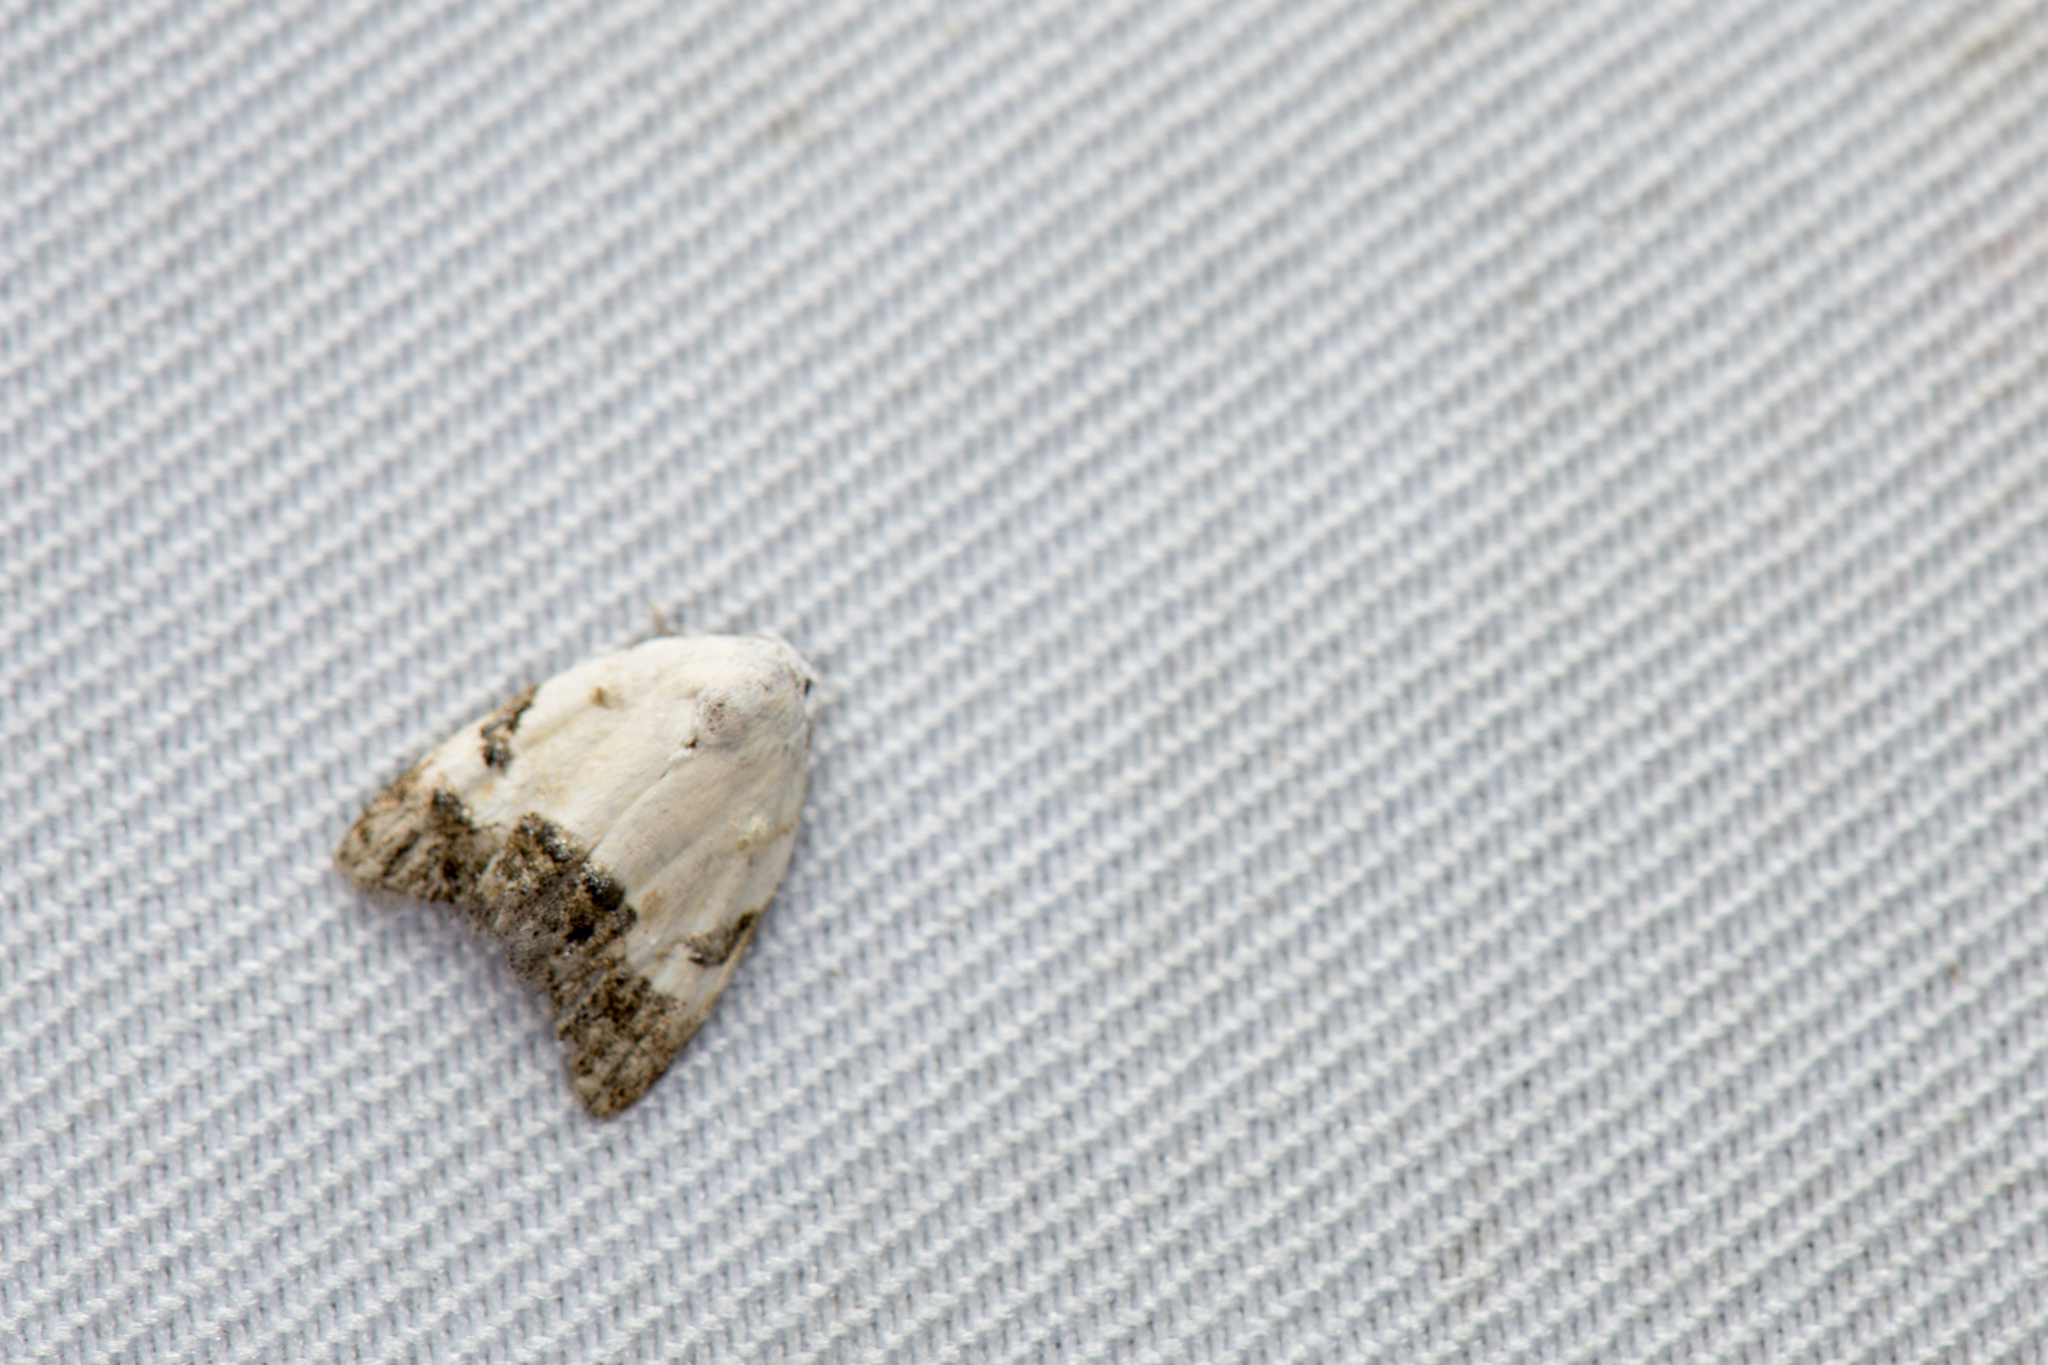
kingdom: Animalia
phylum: Arthropoda
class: Insecta
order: Lepidoptera
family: Nolidae
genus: Casminola
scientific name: Casminola yoshimotoi
